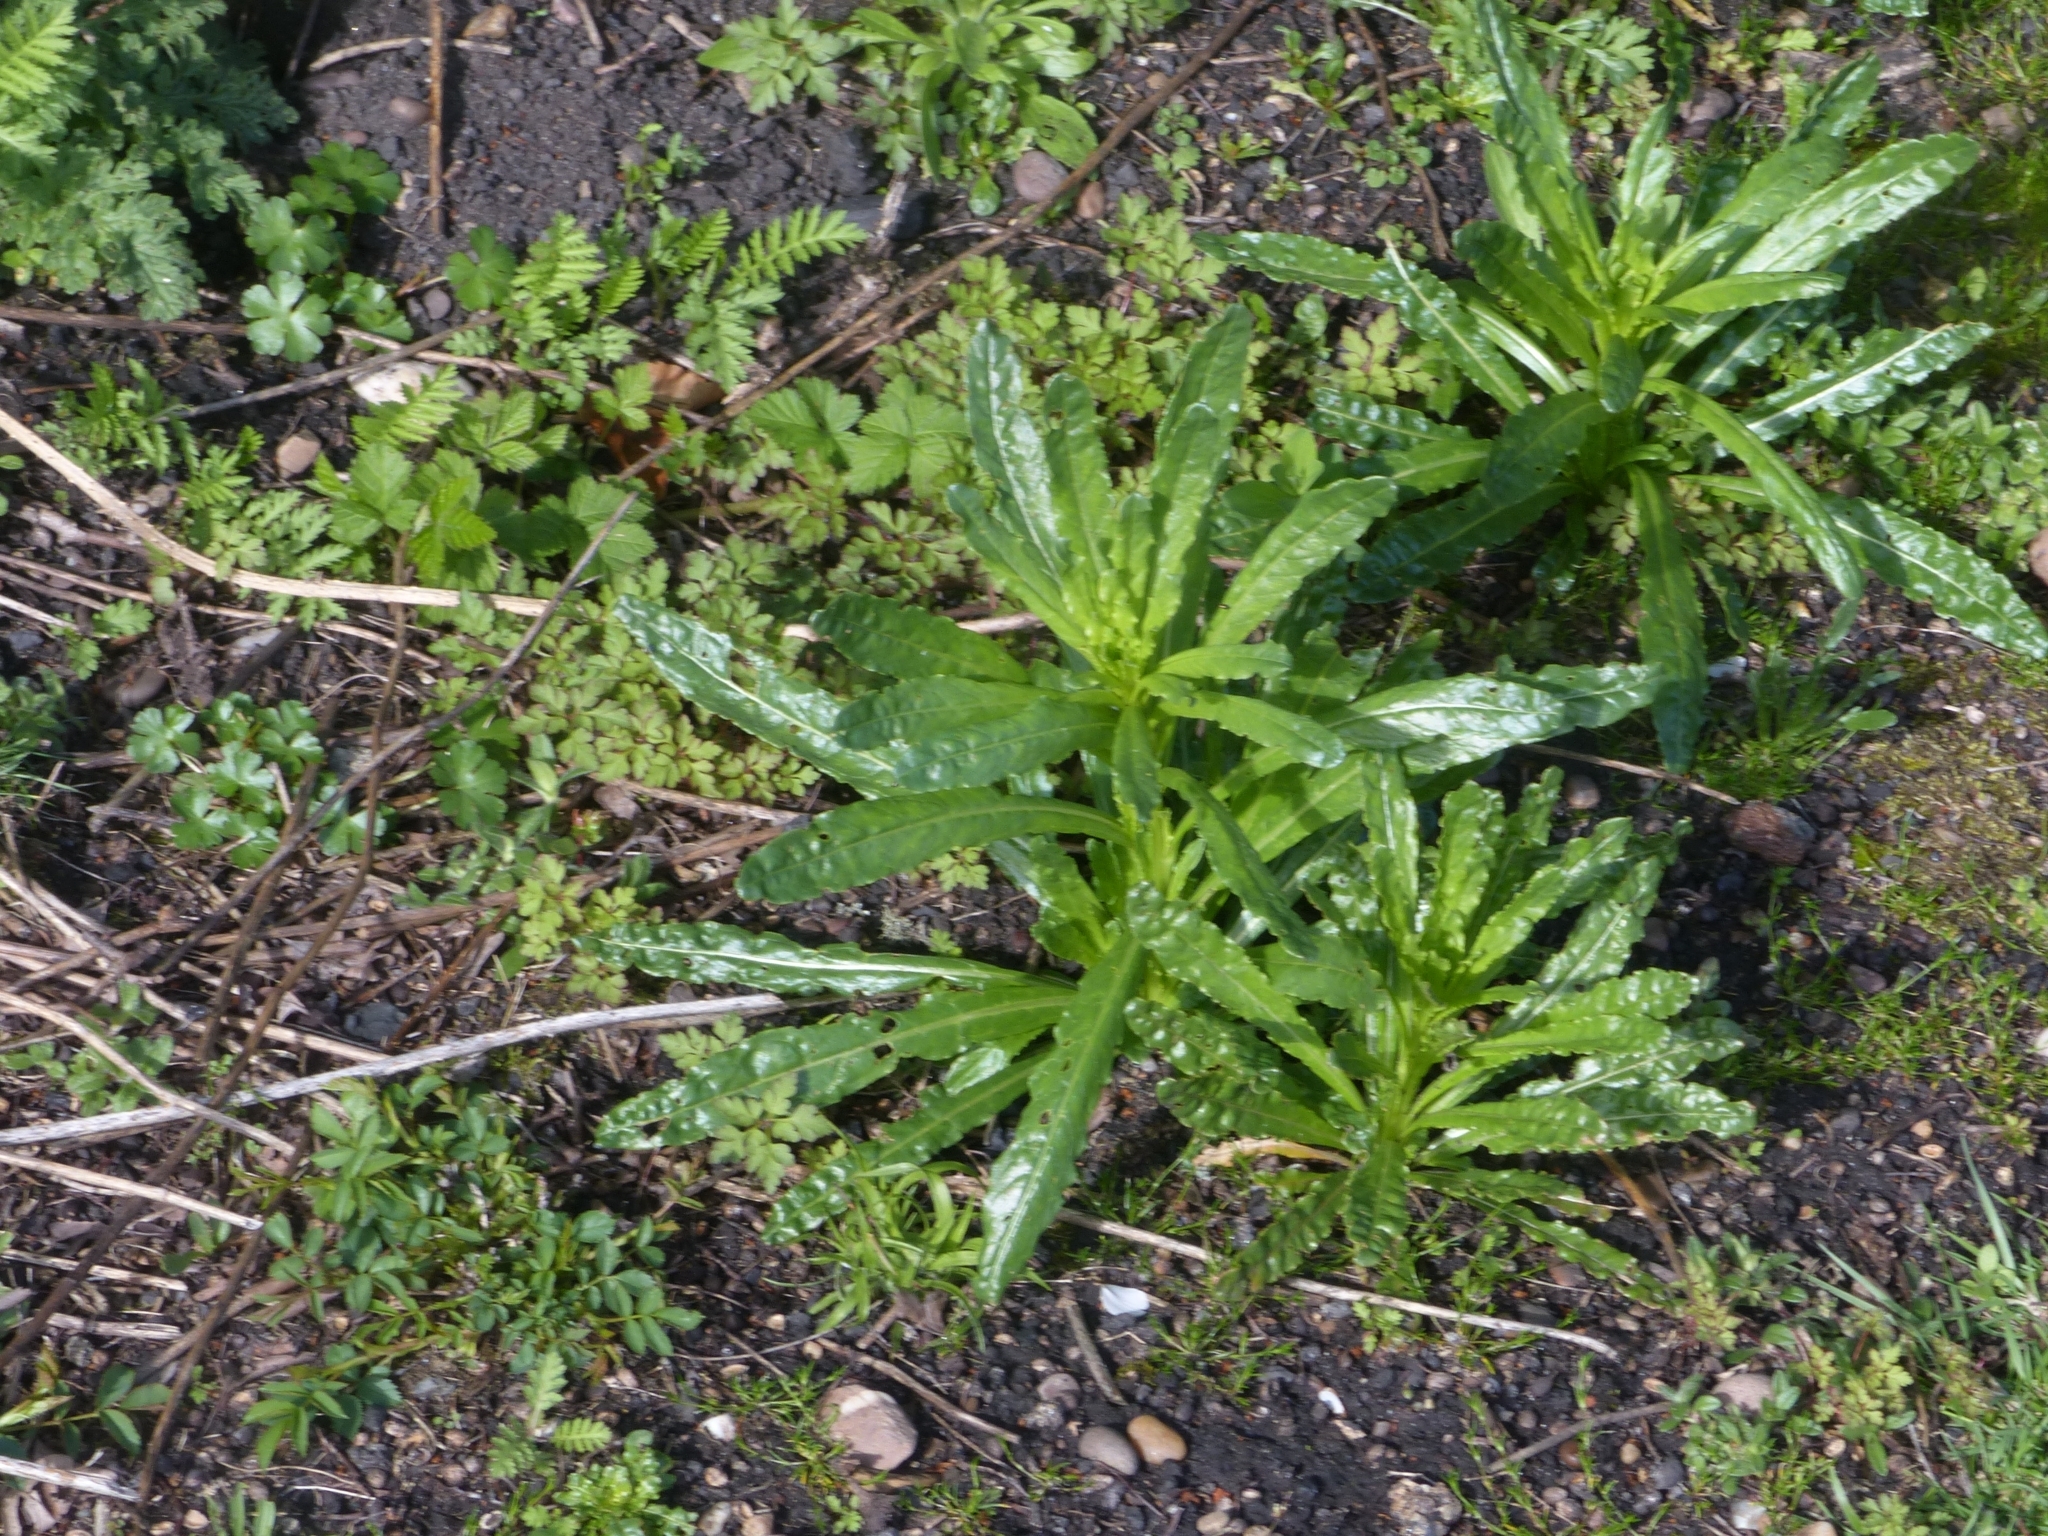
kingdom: Plantae
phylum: Tracheophyta
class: Magnoliopsida
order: Brassicales
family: Resedaceae
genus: Reseda
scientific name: Reseda luteola
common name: Weld
